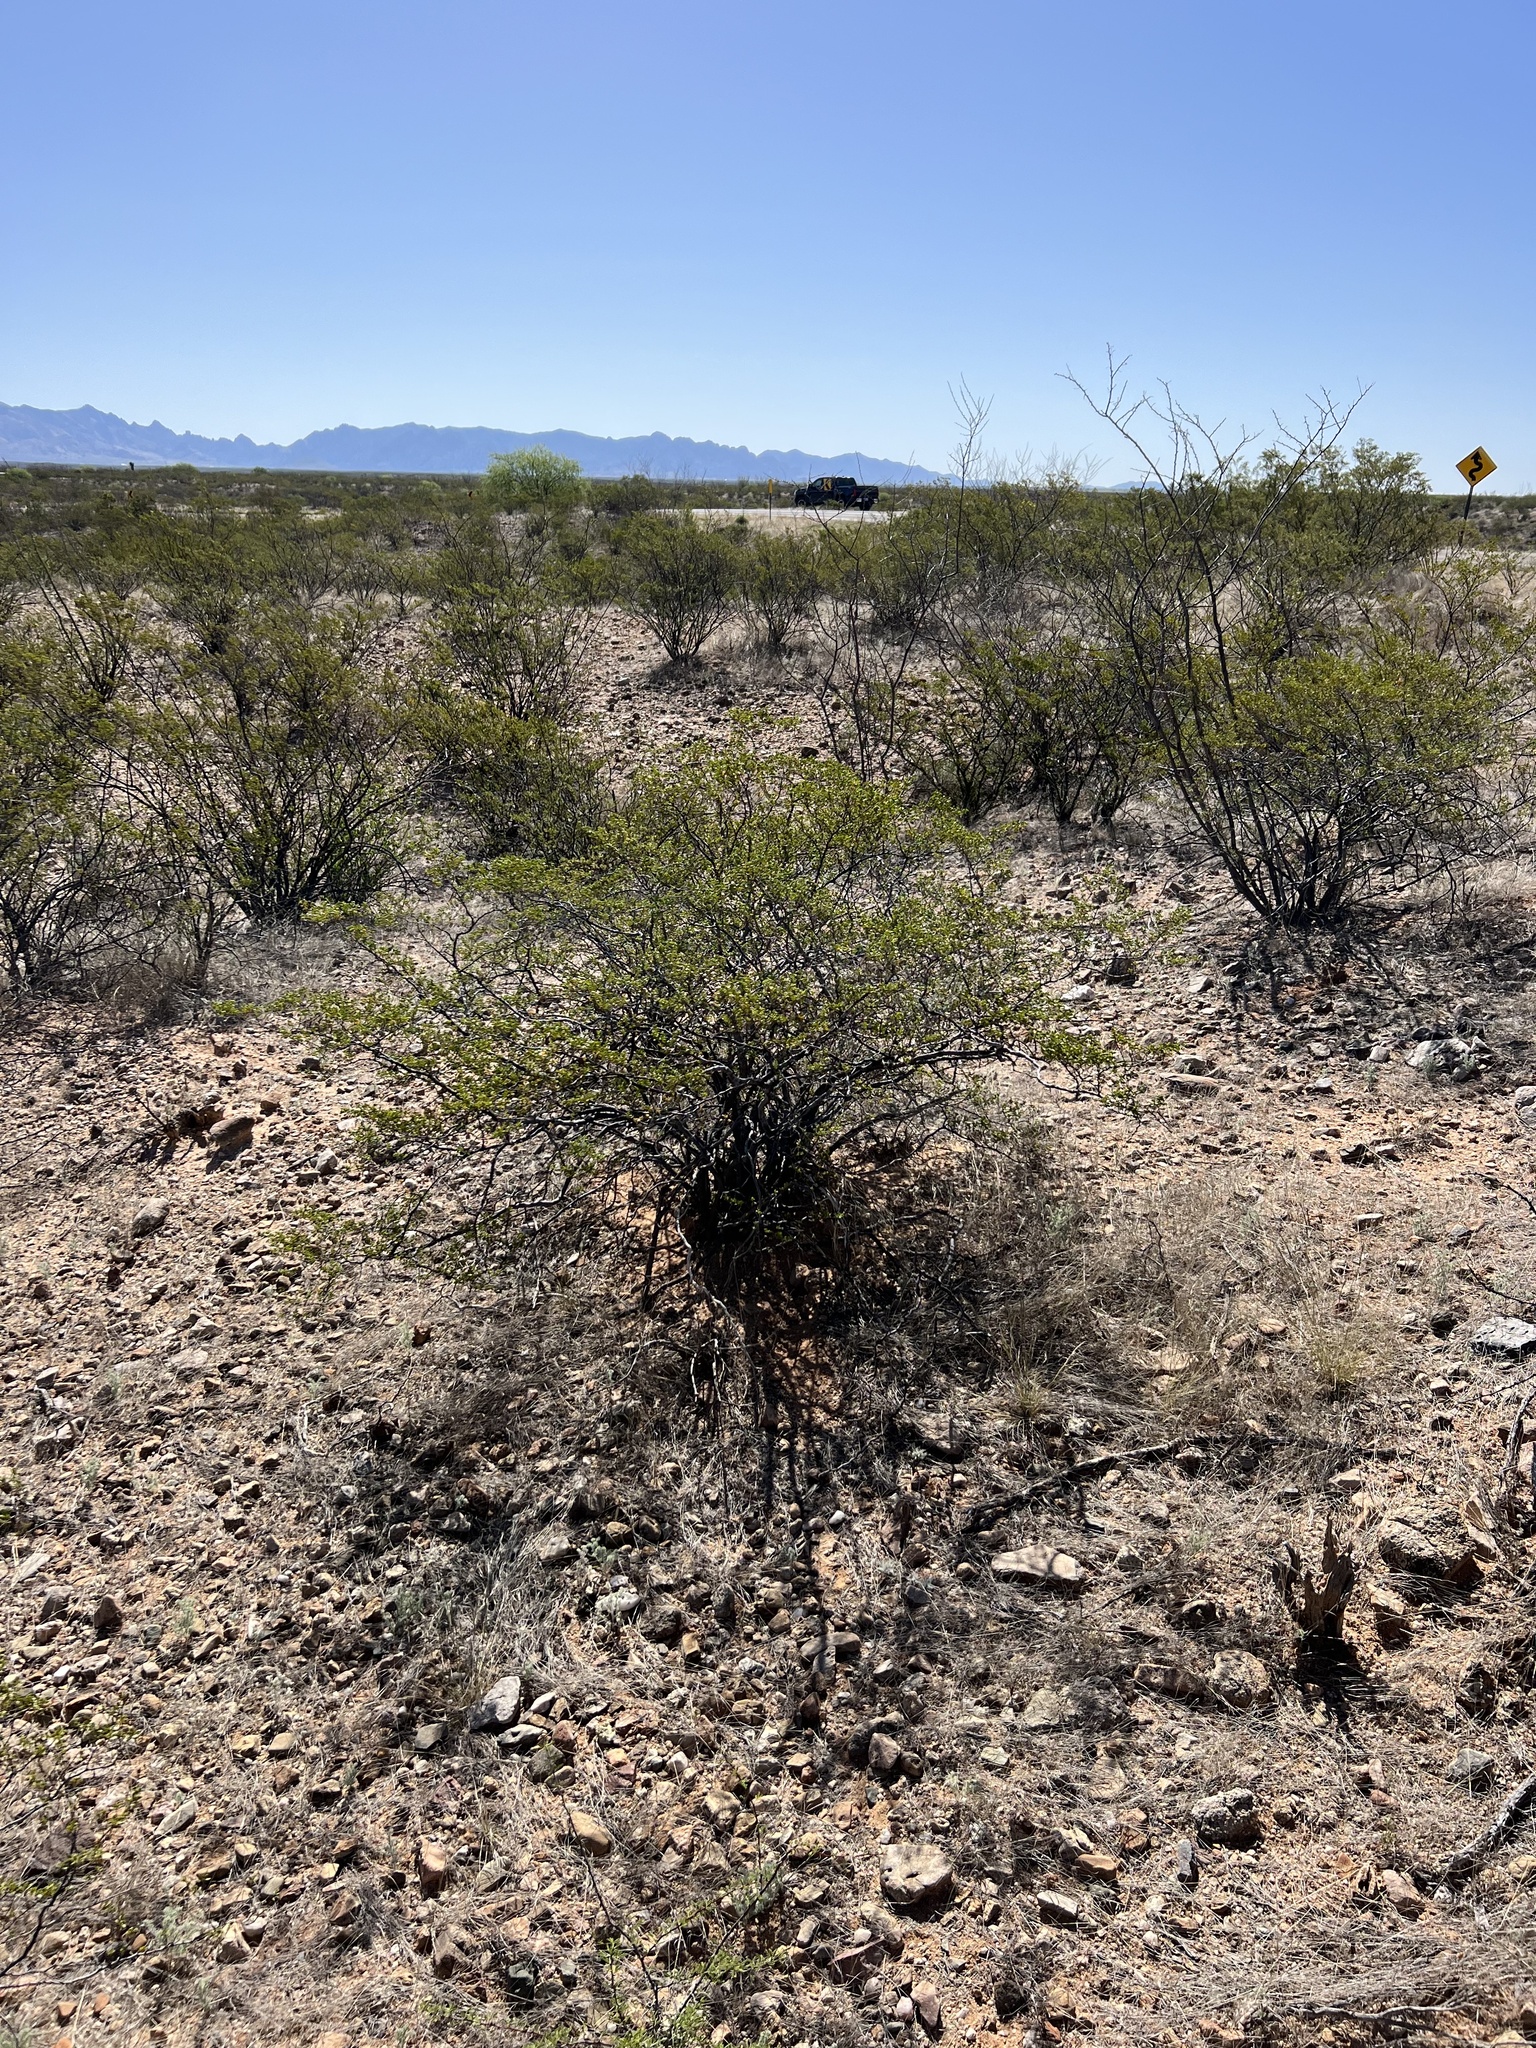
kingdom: Plantae
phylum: Tracheophyta
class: Magnoliopsida
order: Zygophyllales
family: Zygophyllaceae
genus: Larrea
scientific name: Larrea tridentata
